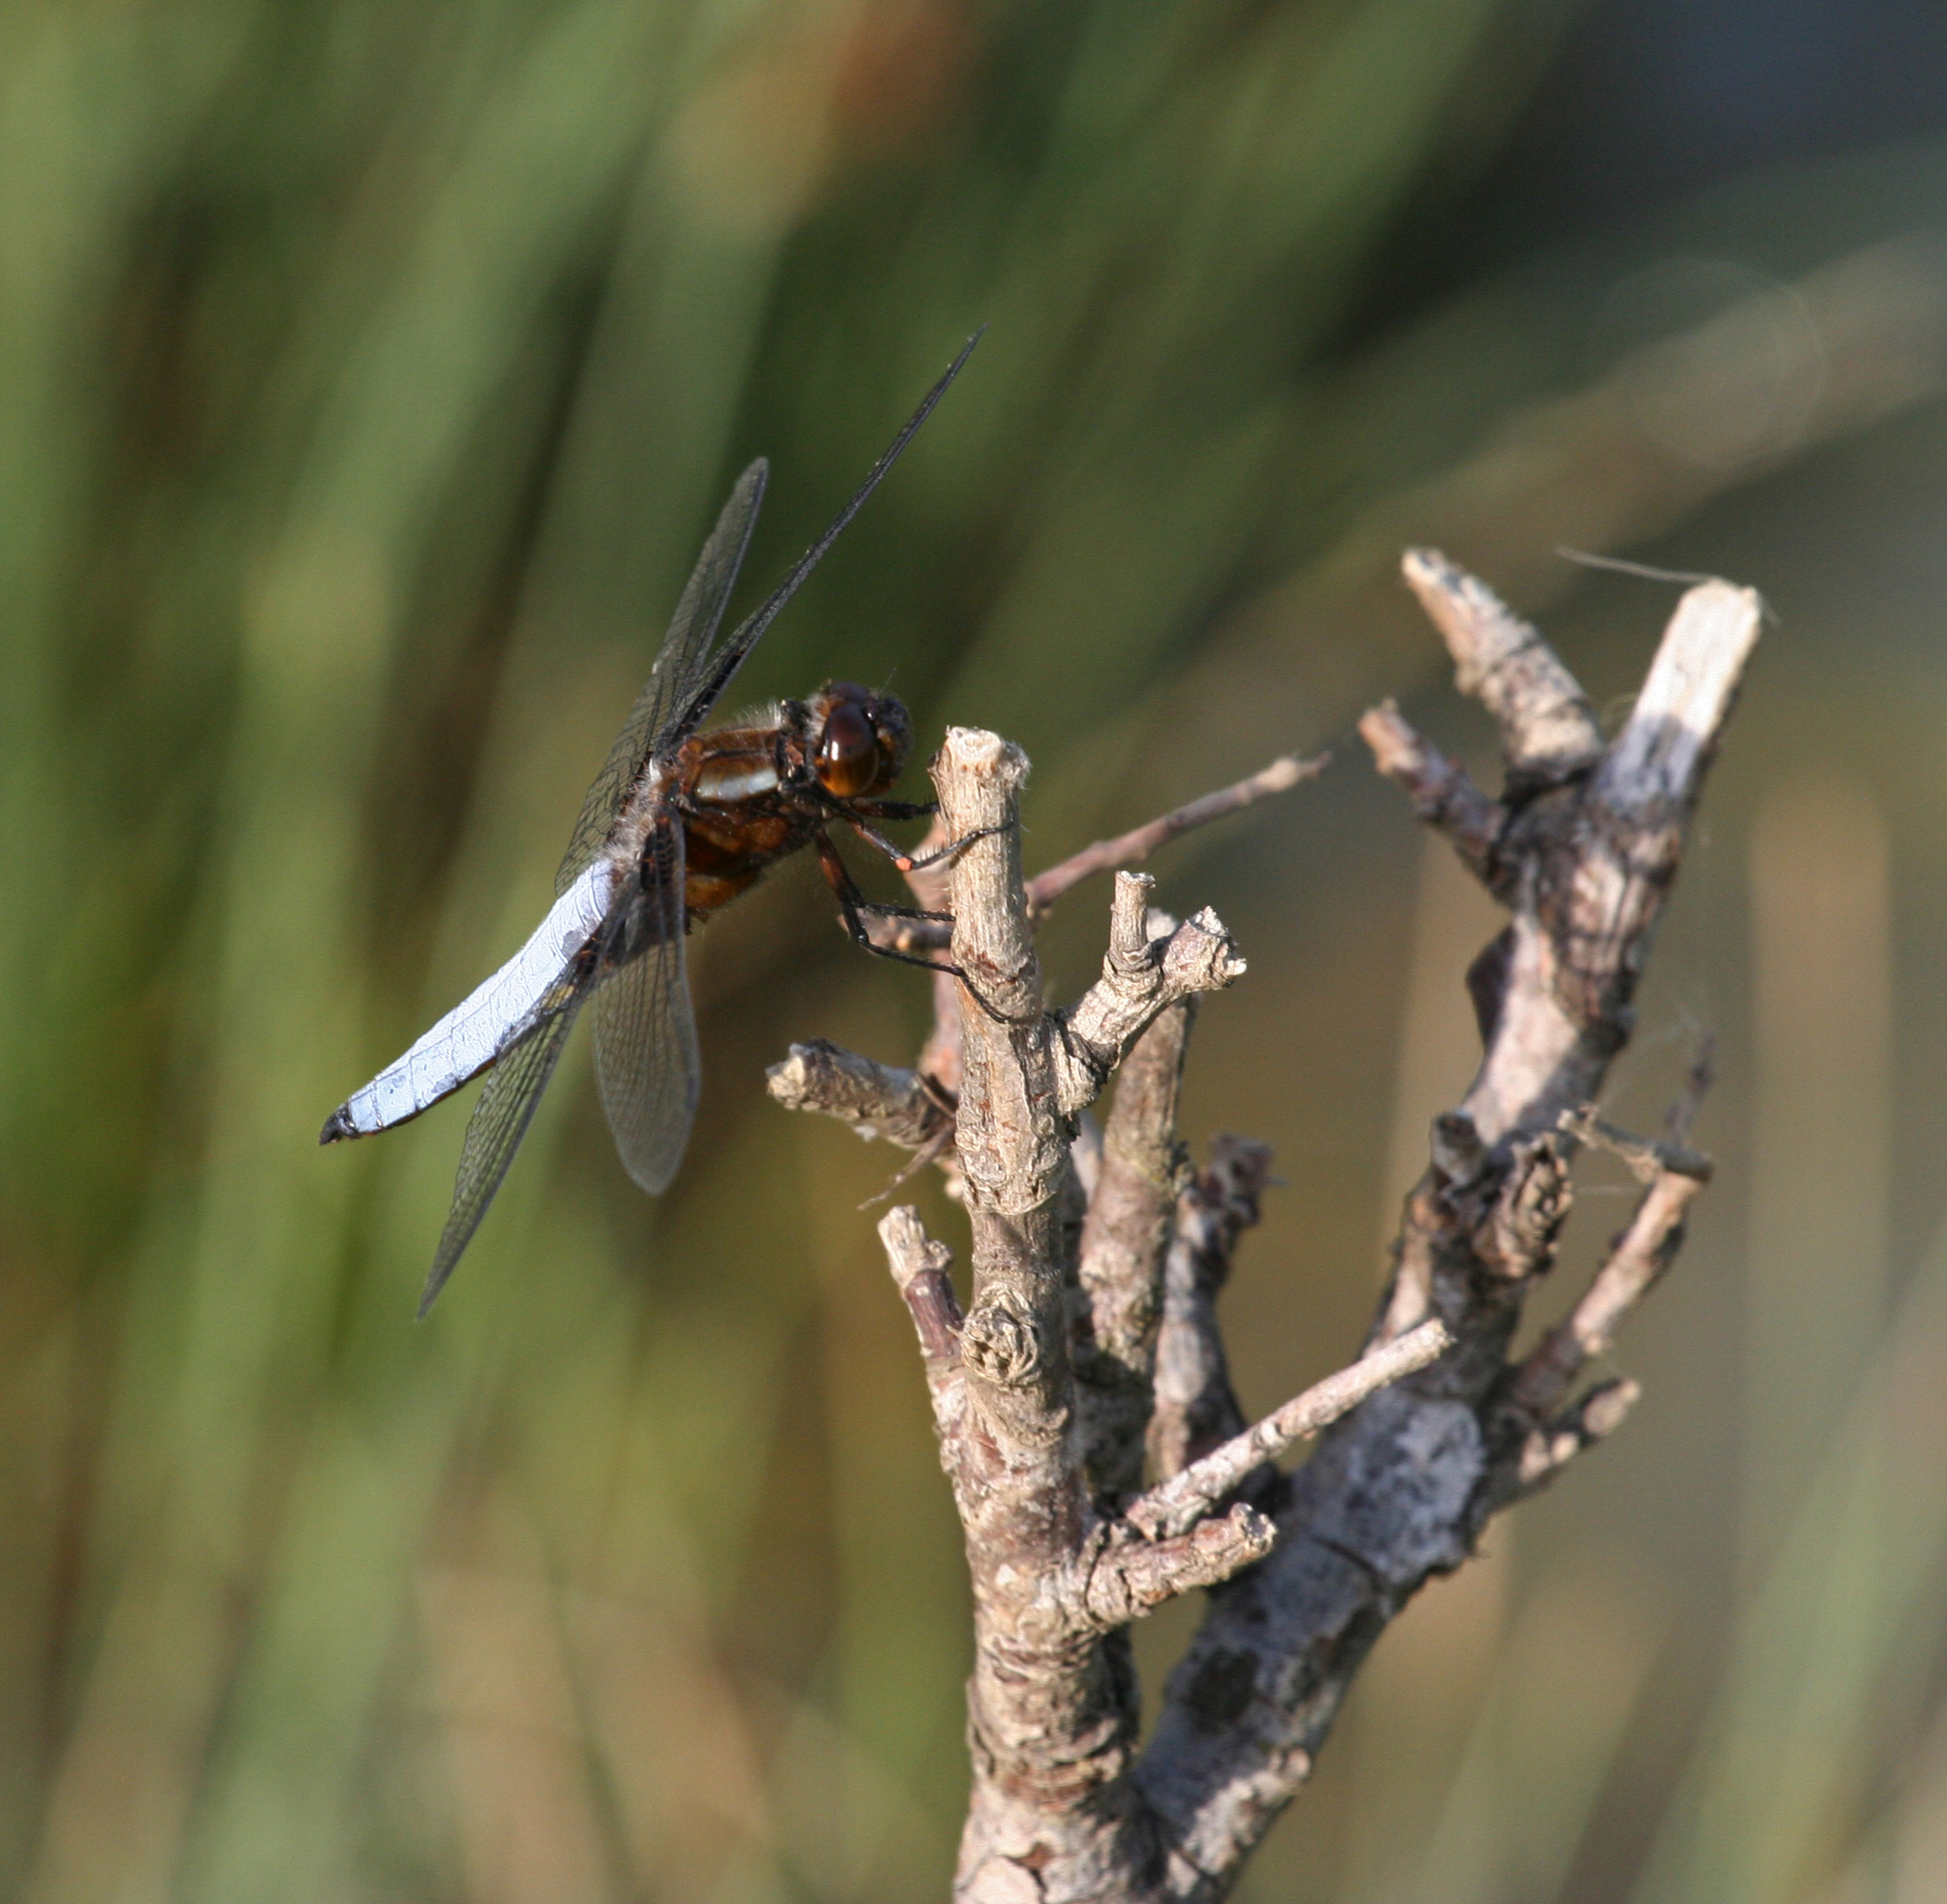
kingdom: Animalia
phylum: Arthropoda
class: Insecta
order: Odonata
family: Libellulidae
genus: Libellula
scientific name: Libellula depressa
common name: Broad-bodied chaser
